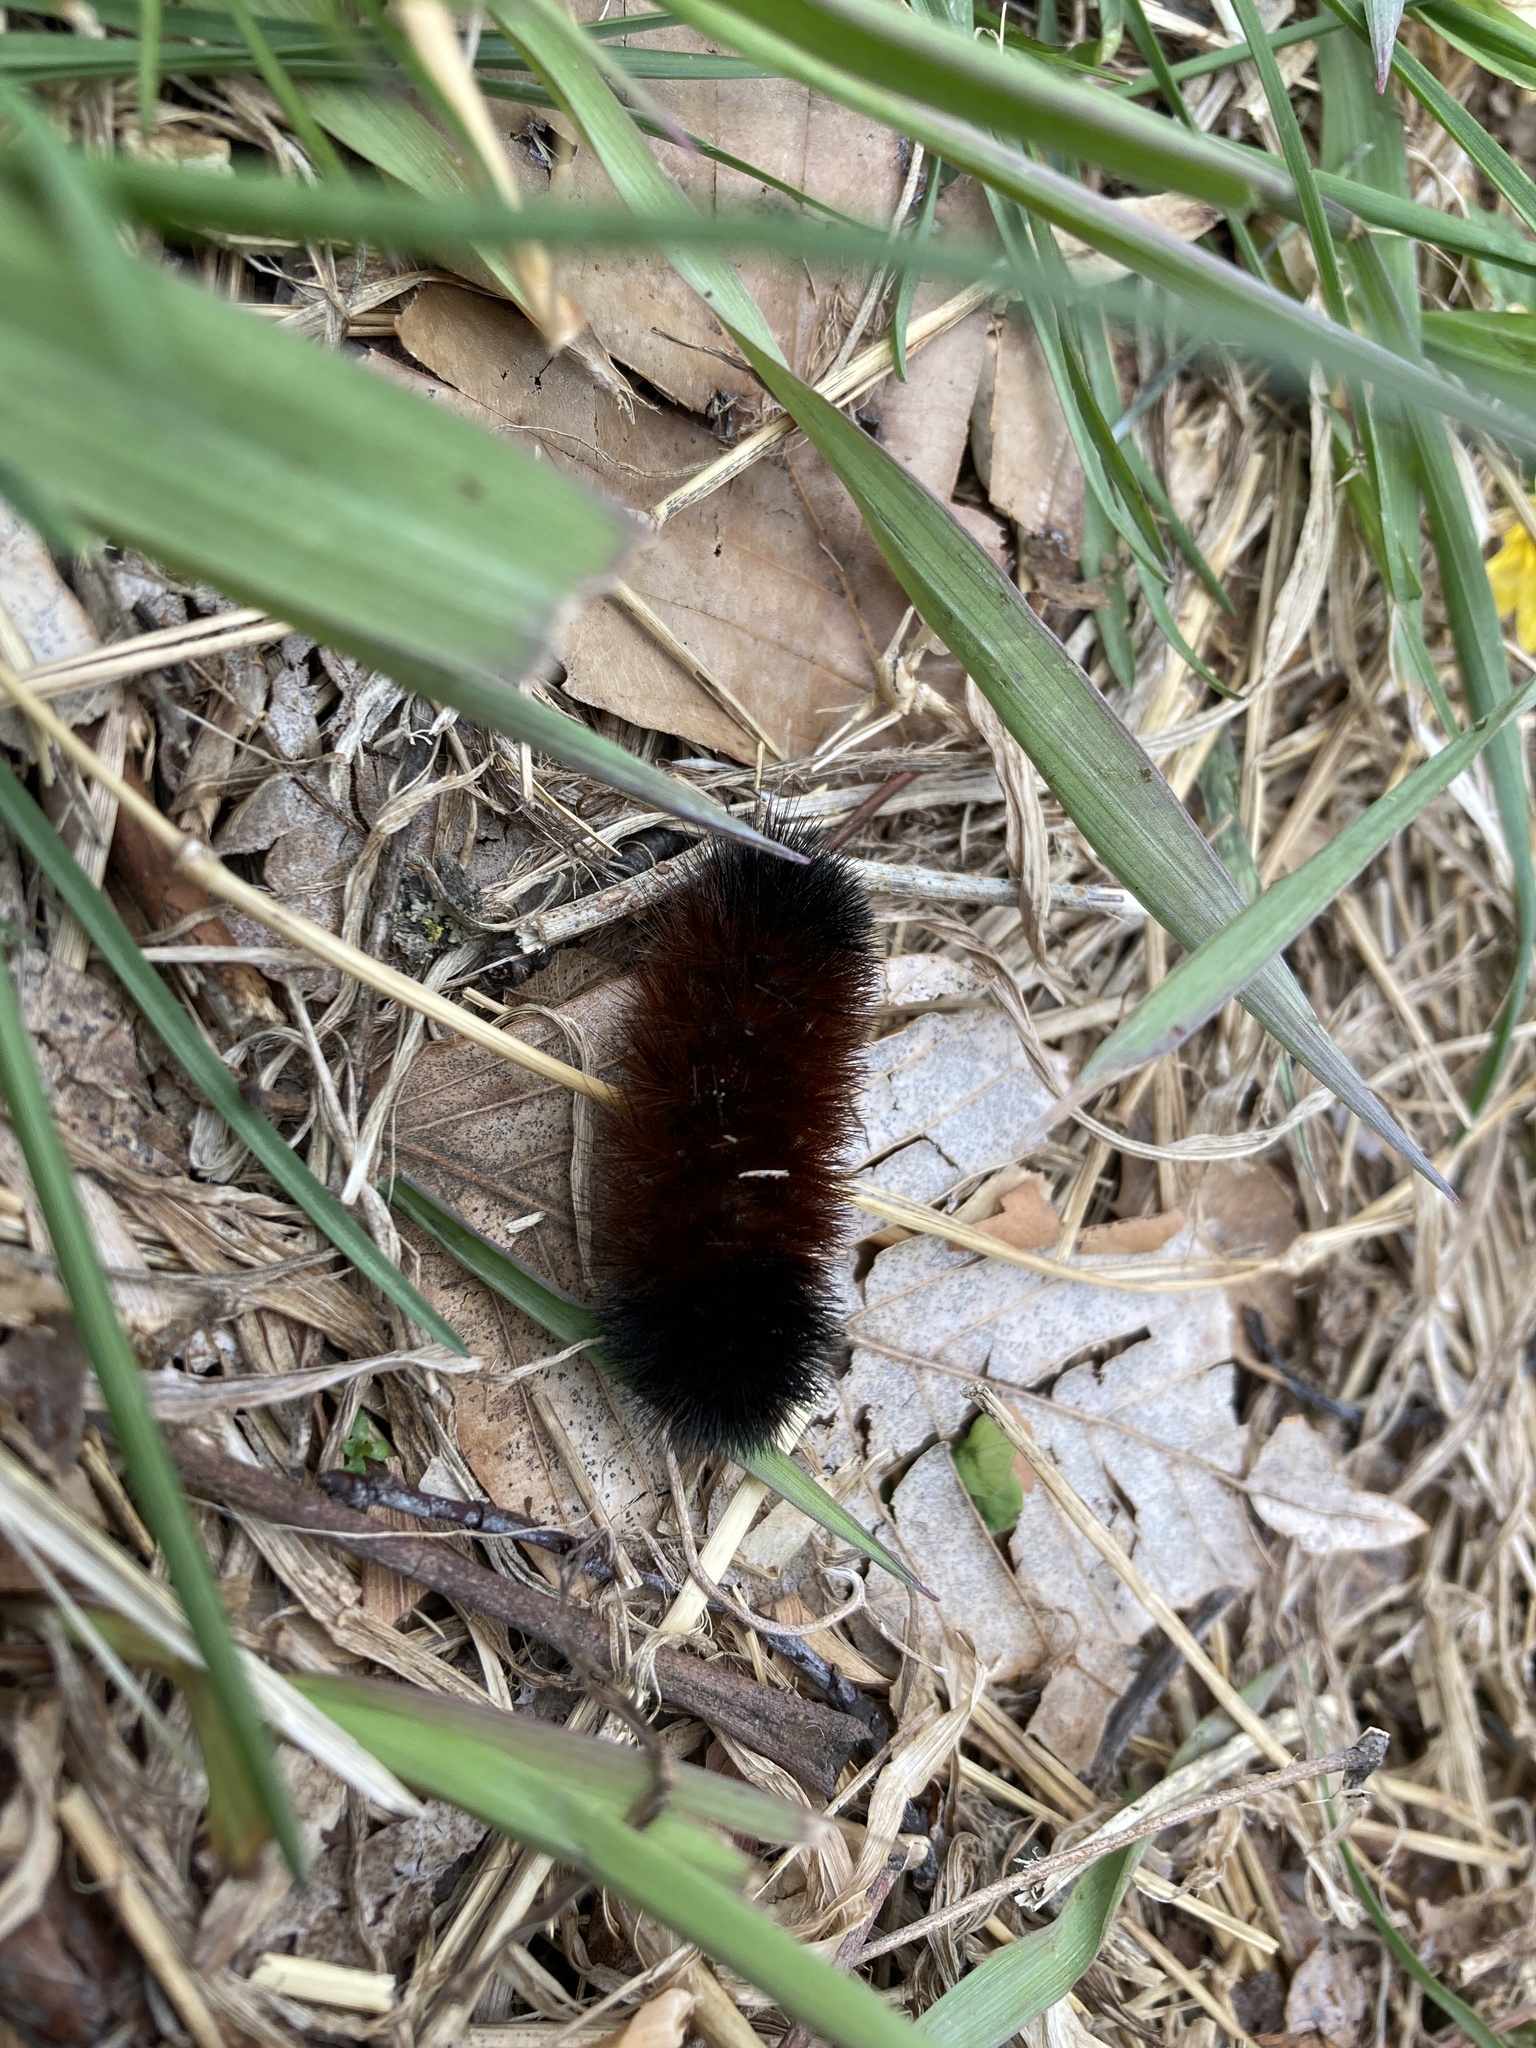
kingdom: Animalia
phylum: Arthropoda
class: Insecta
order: Lepidoptera
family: Erebidae
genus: Pyrrharctia
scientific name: Pyrrharctia isabella
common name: Isabella tiger moth
